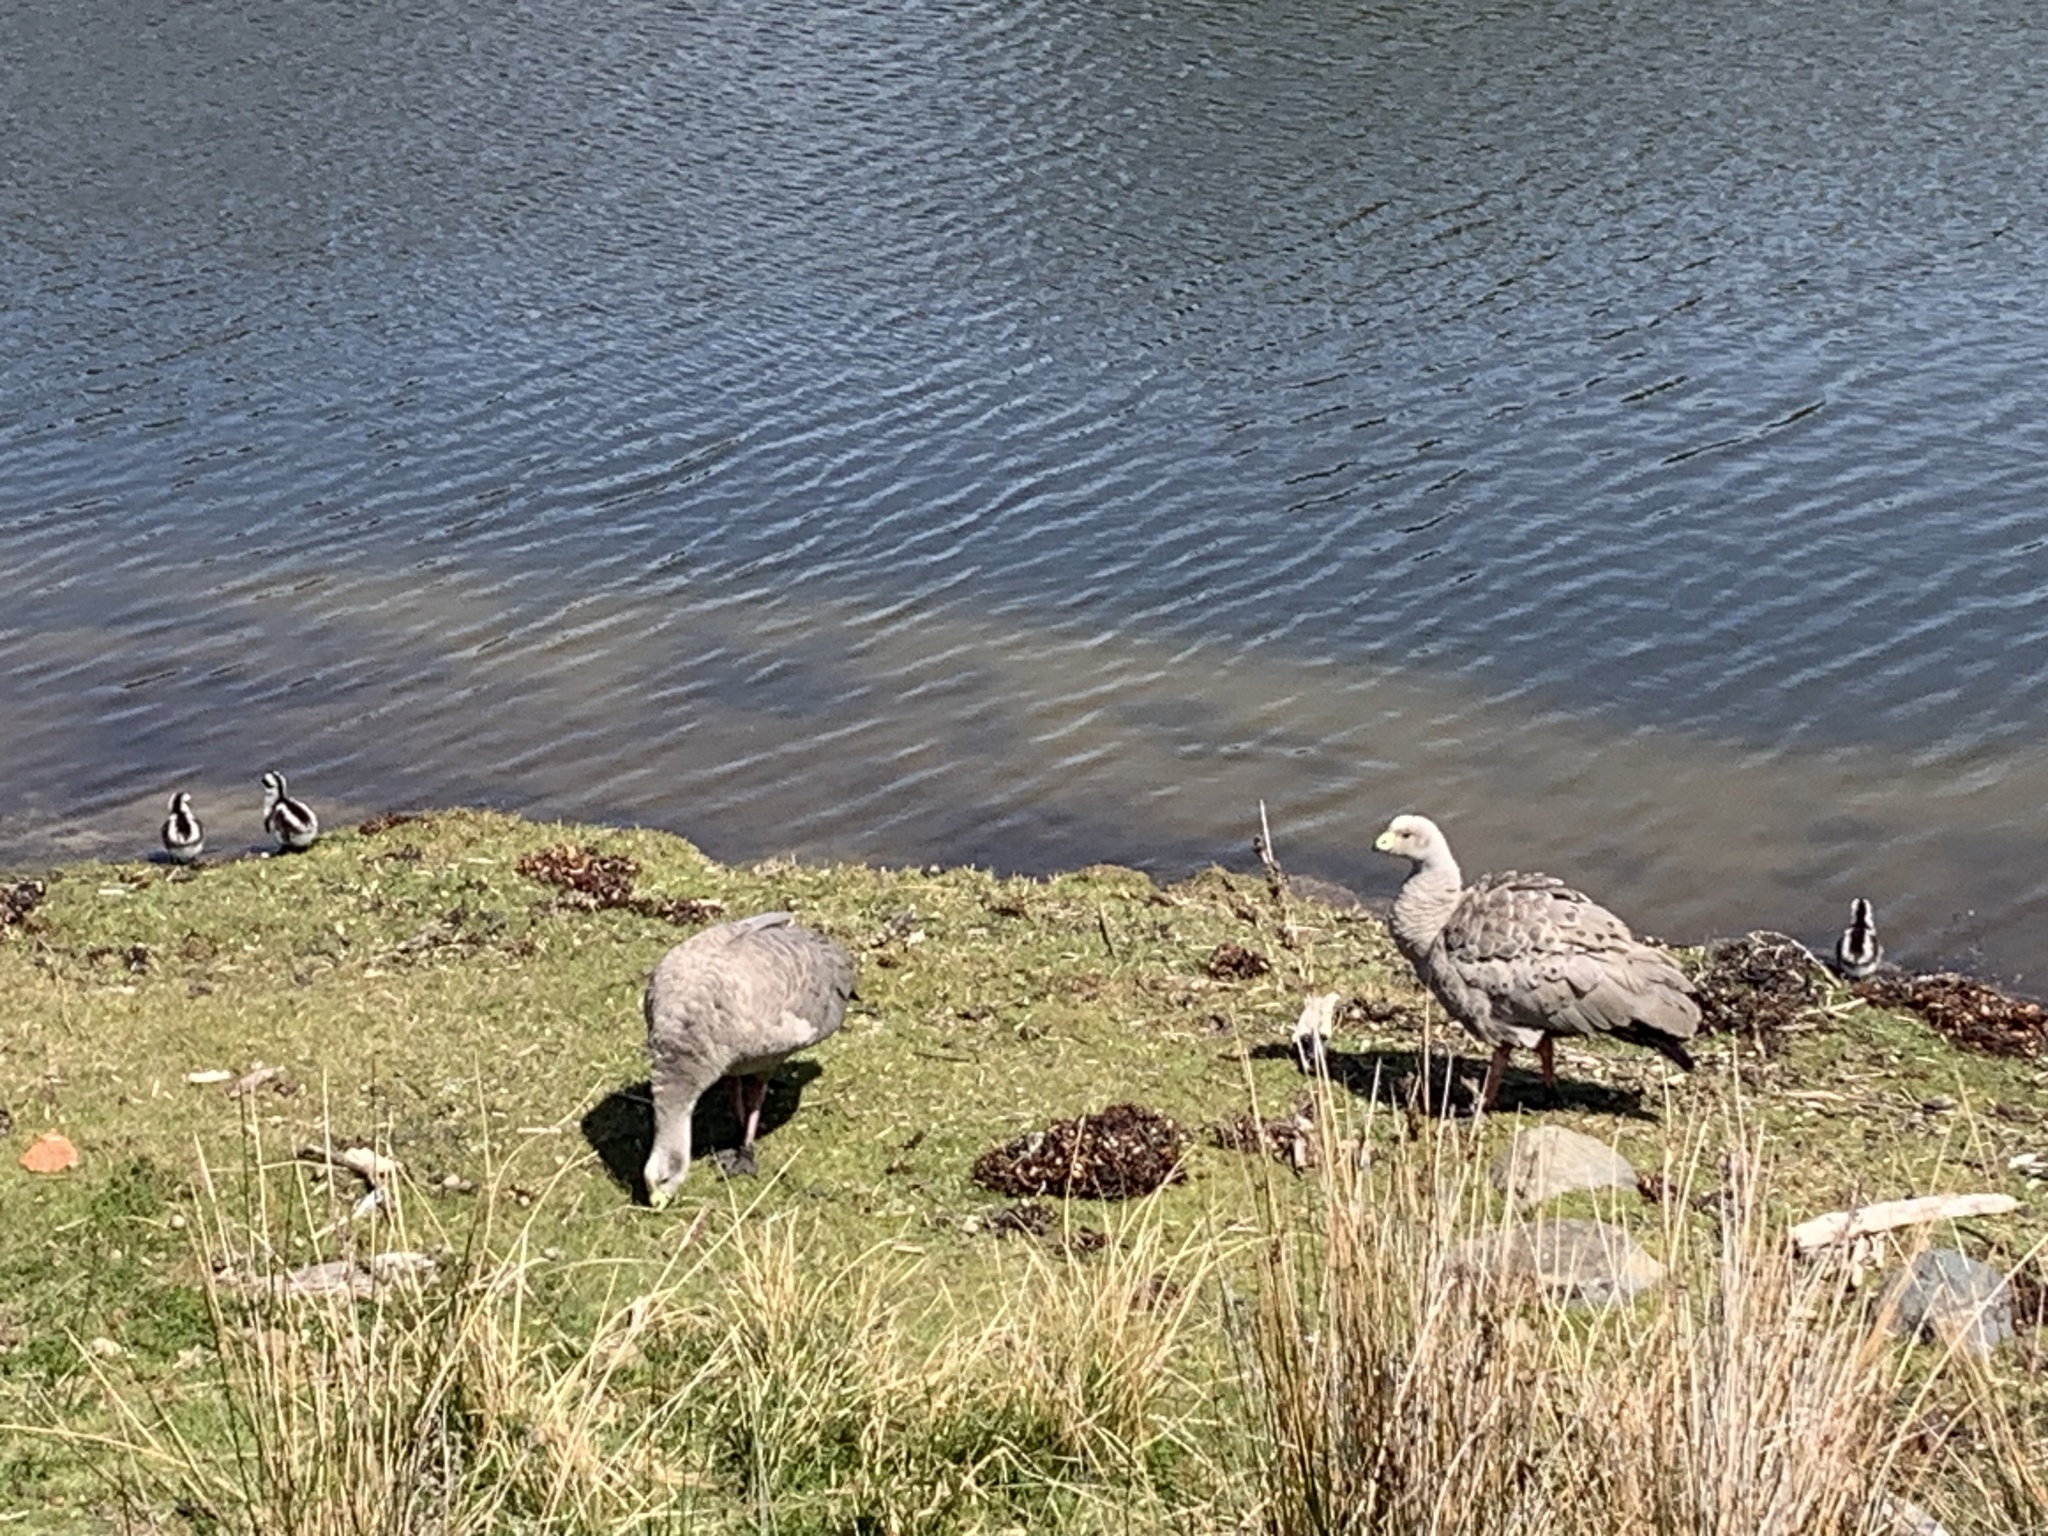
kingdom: Animalia
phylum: Chordata
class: Aves
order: Anseriformes
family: Anatidae
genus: Cereopsis
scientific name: Cereopsis novaehollandiae
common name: Cape barren goose
